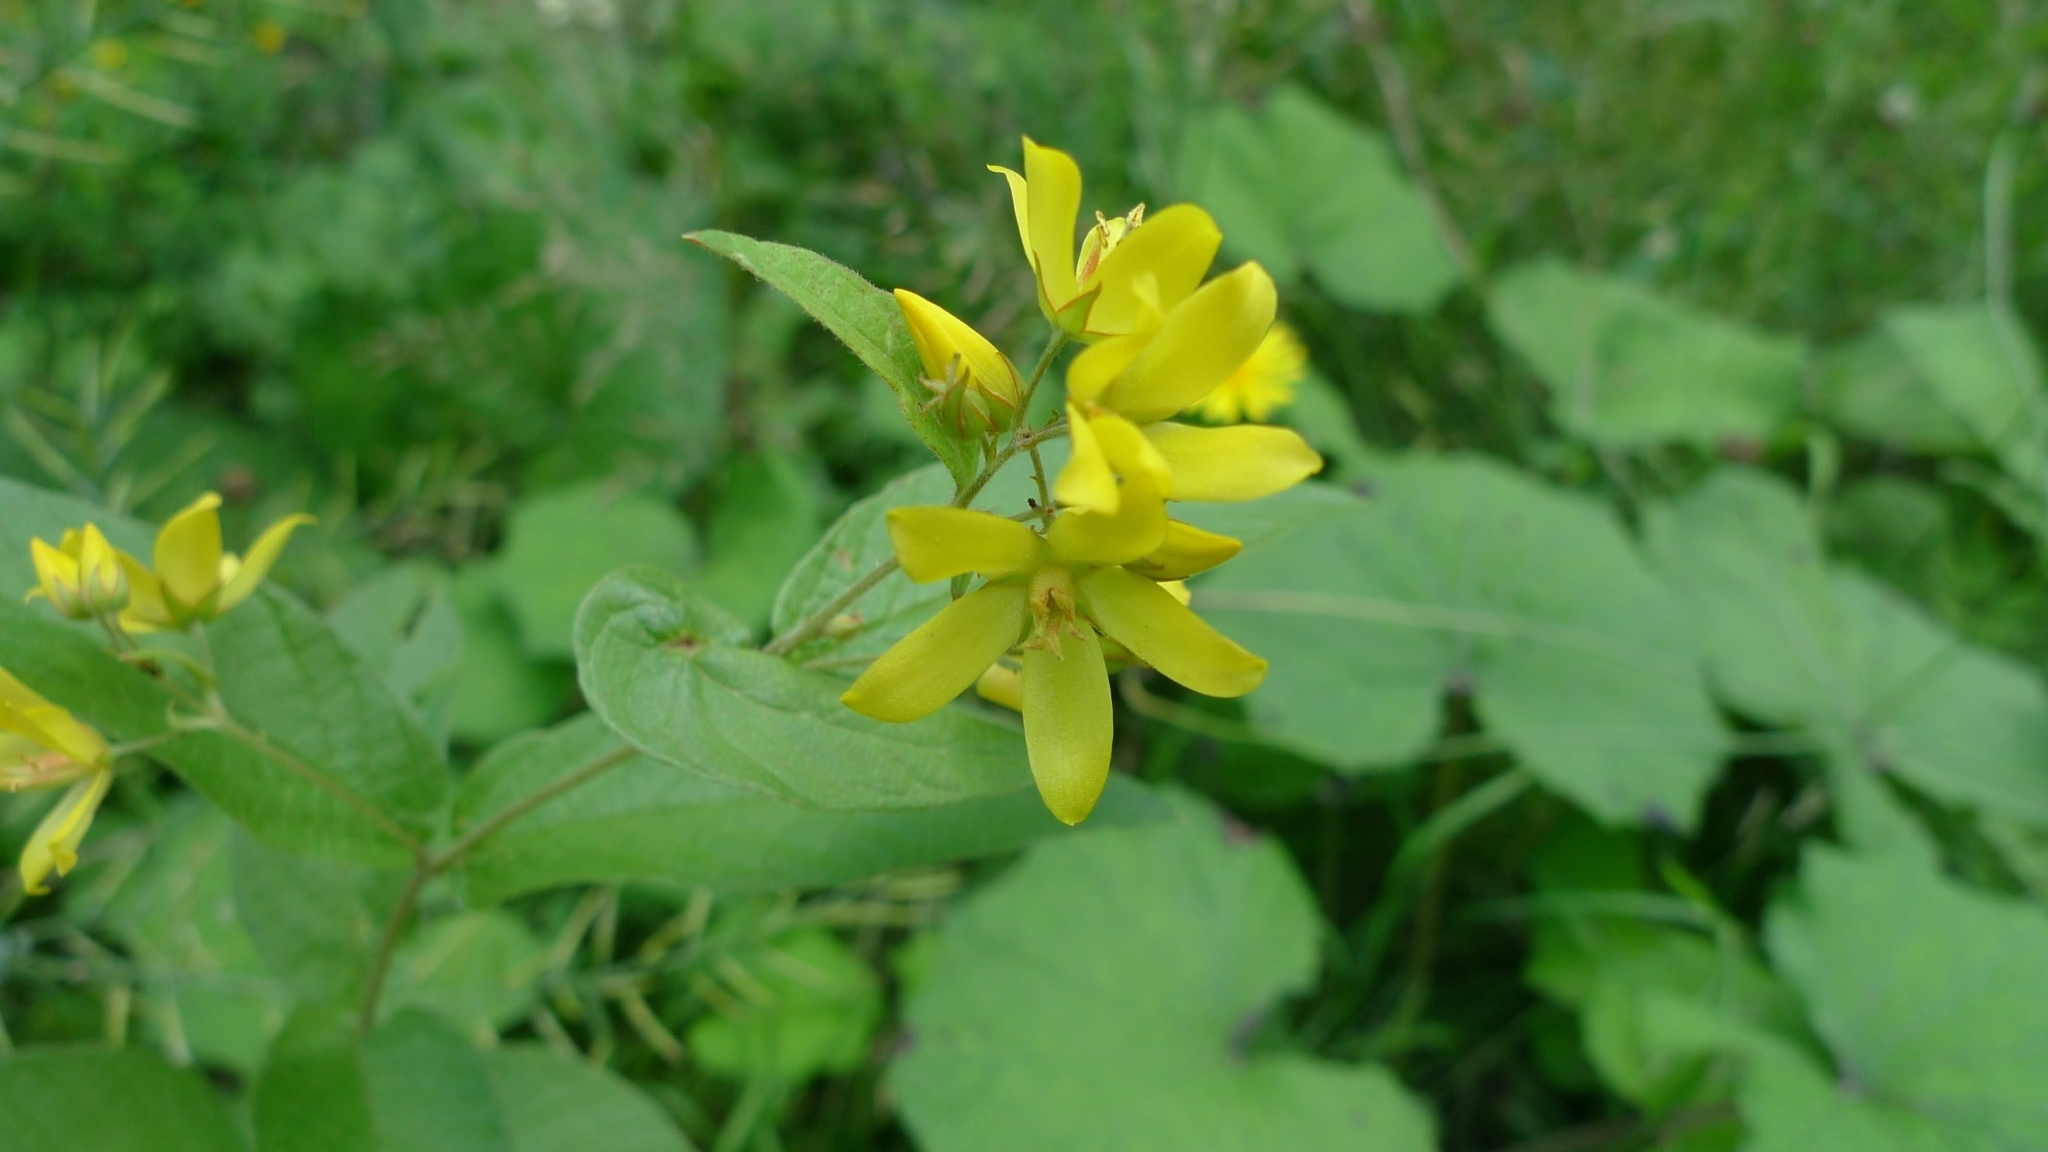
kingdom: Plantae
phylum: Tracheophyta
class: Magnoliopsida
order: Ericales
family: Primulaceae
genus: Lysimachia
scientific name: Lysimachia vulgaris
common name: Yellow loosestrife
